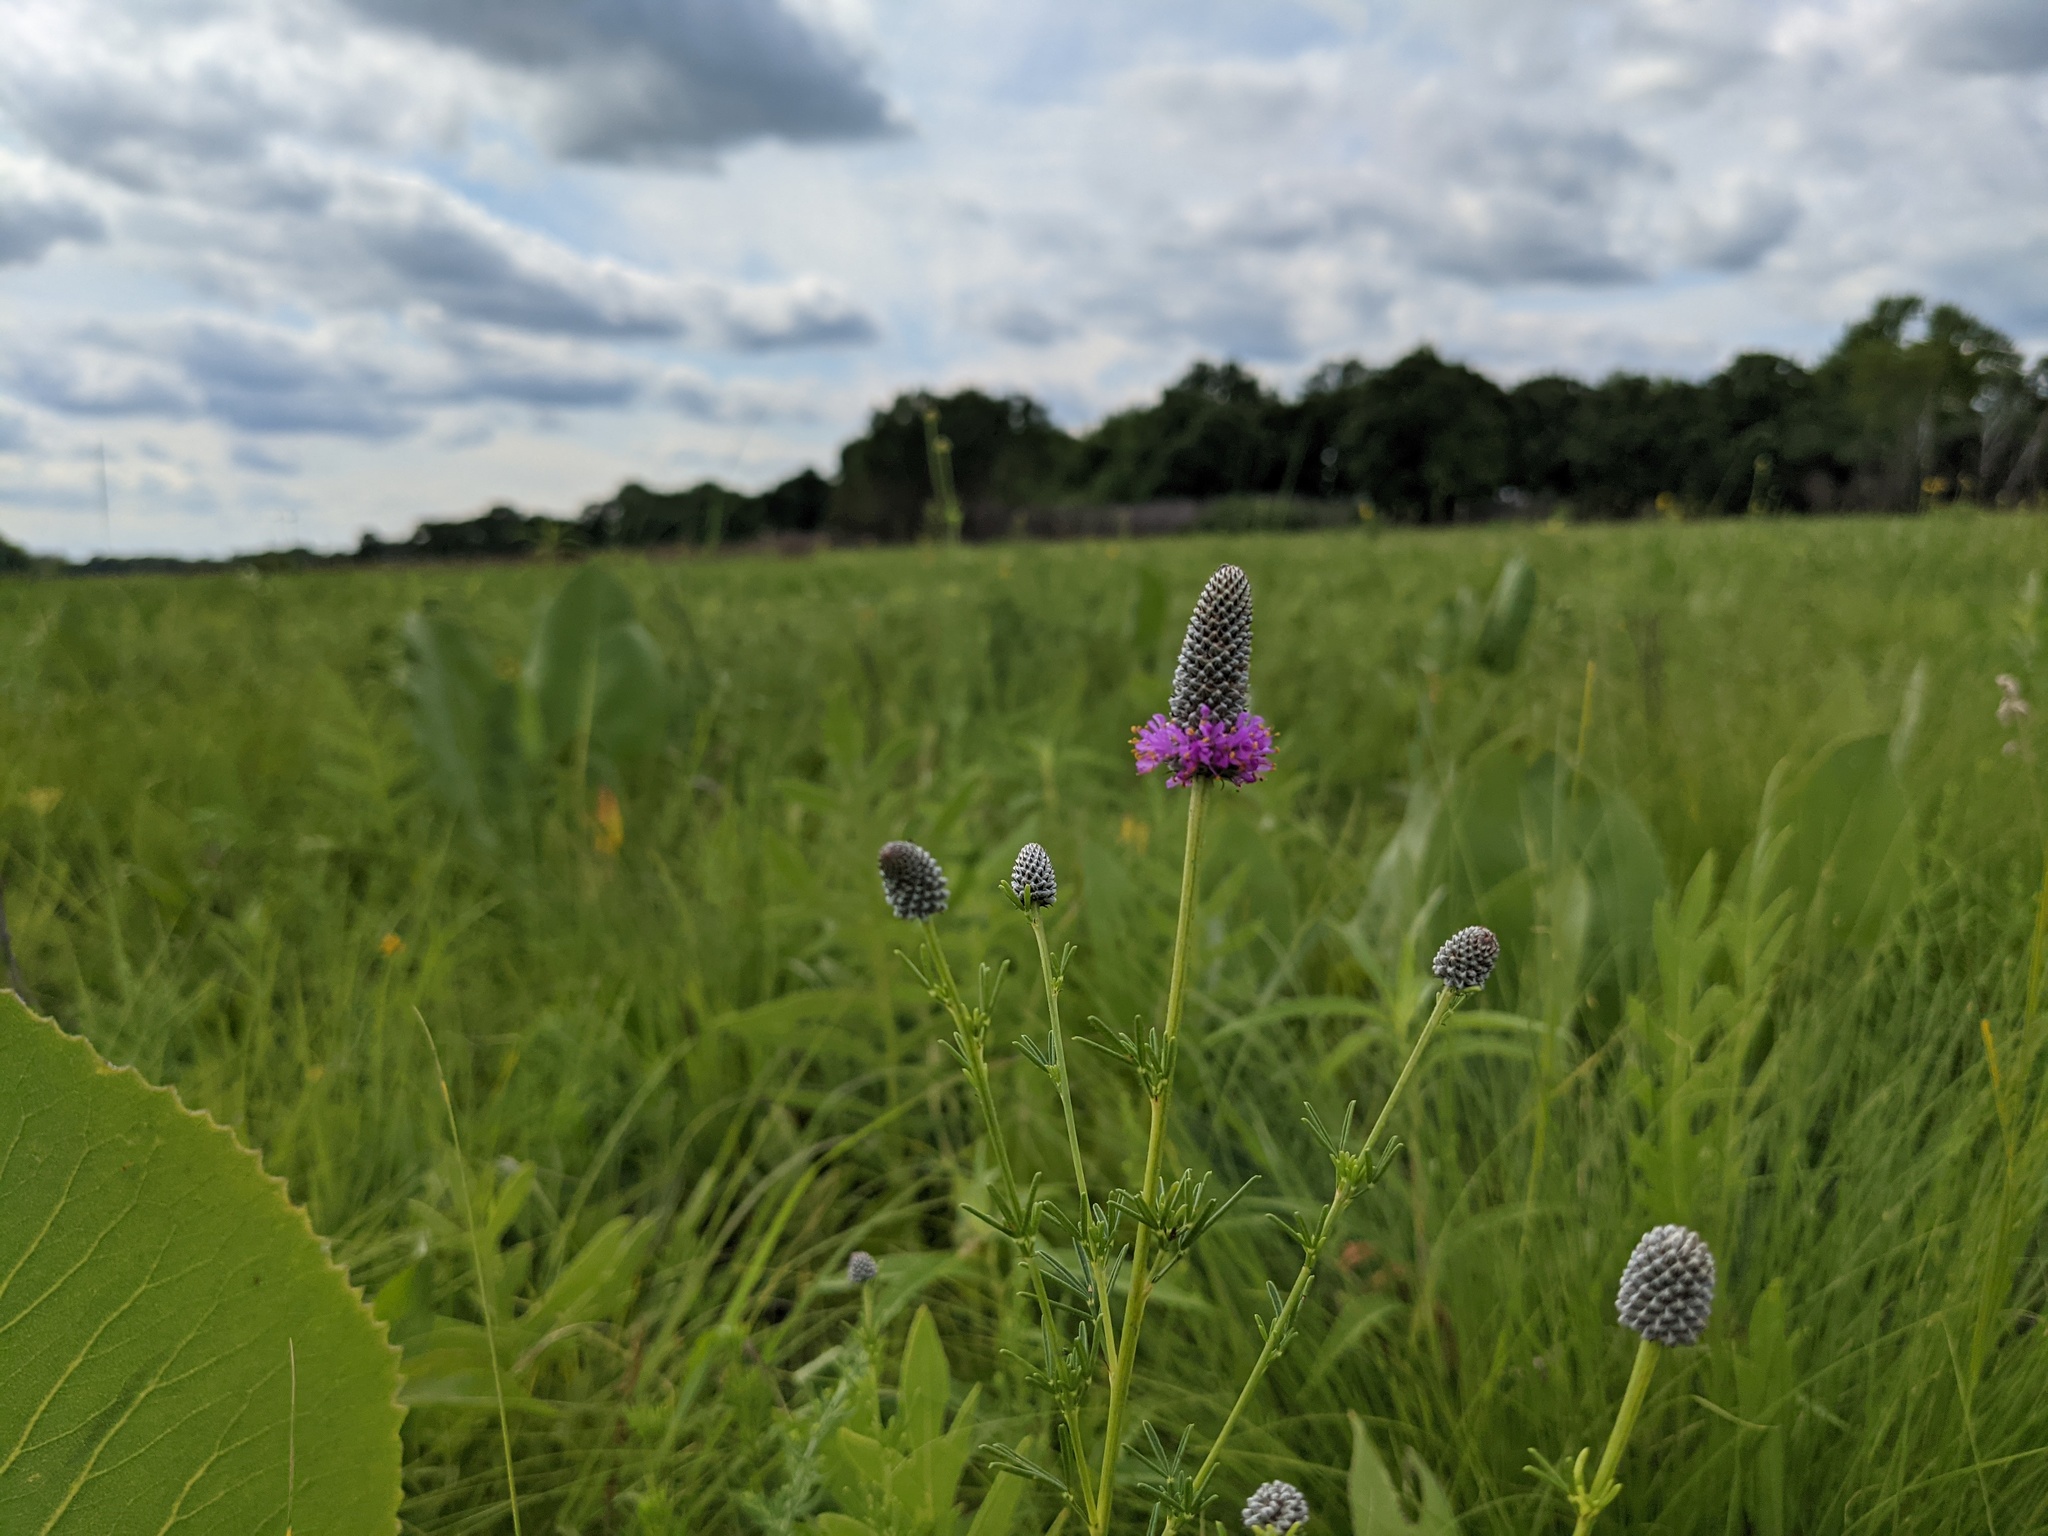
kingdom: Plantae
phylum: Tracheophyta
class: Magnoliopsida
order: Fabales
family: Fabaceae
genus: Dalea
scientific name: Dalea purpurea
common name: Purple prairie-clover
